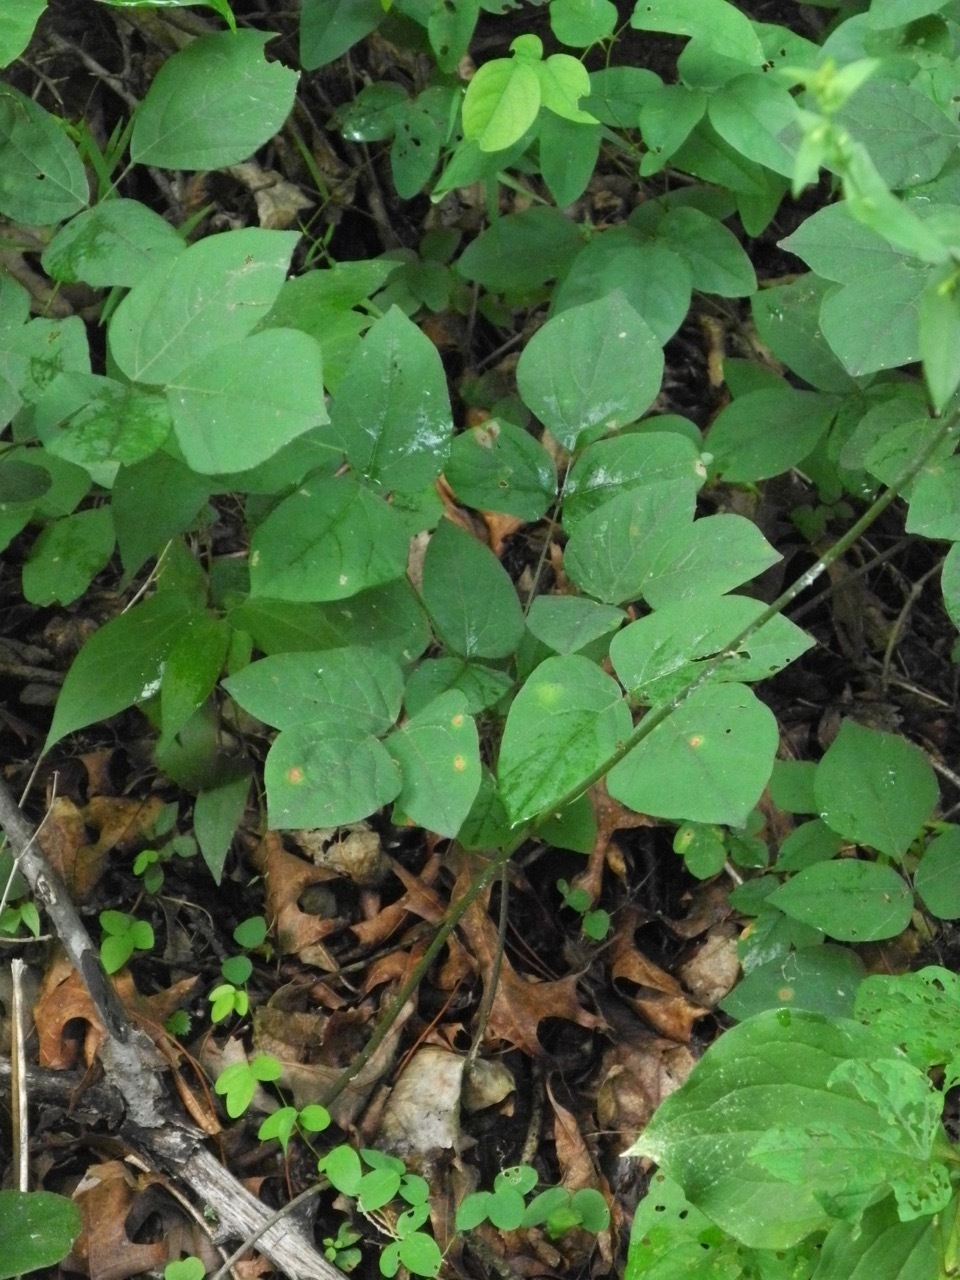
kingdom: Plantae
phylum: Tracheophyta
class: Magnoliopsida
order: Fabales
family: Fabaceae
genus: Hylodesmum
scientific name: Hylodesmum nudiflorum
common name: Bare-stemmed tick-trefoil
